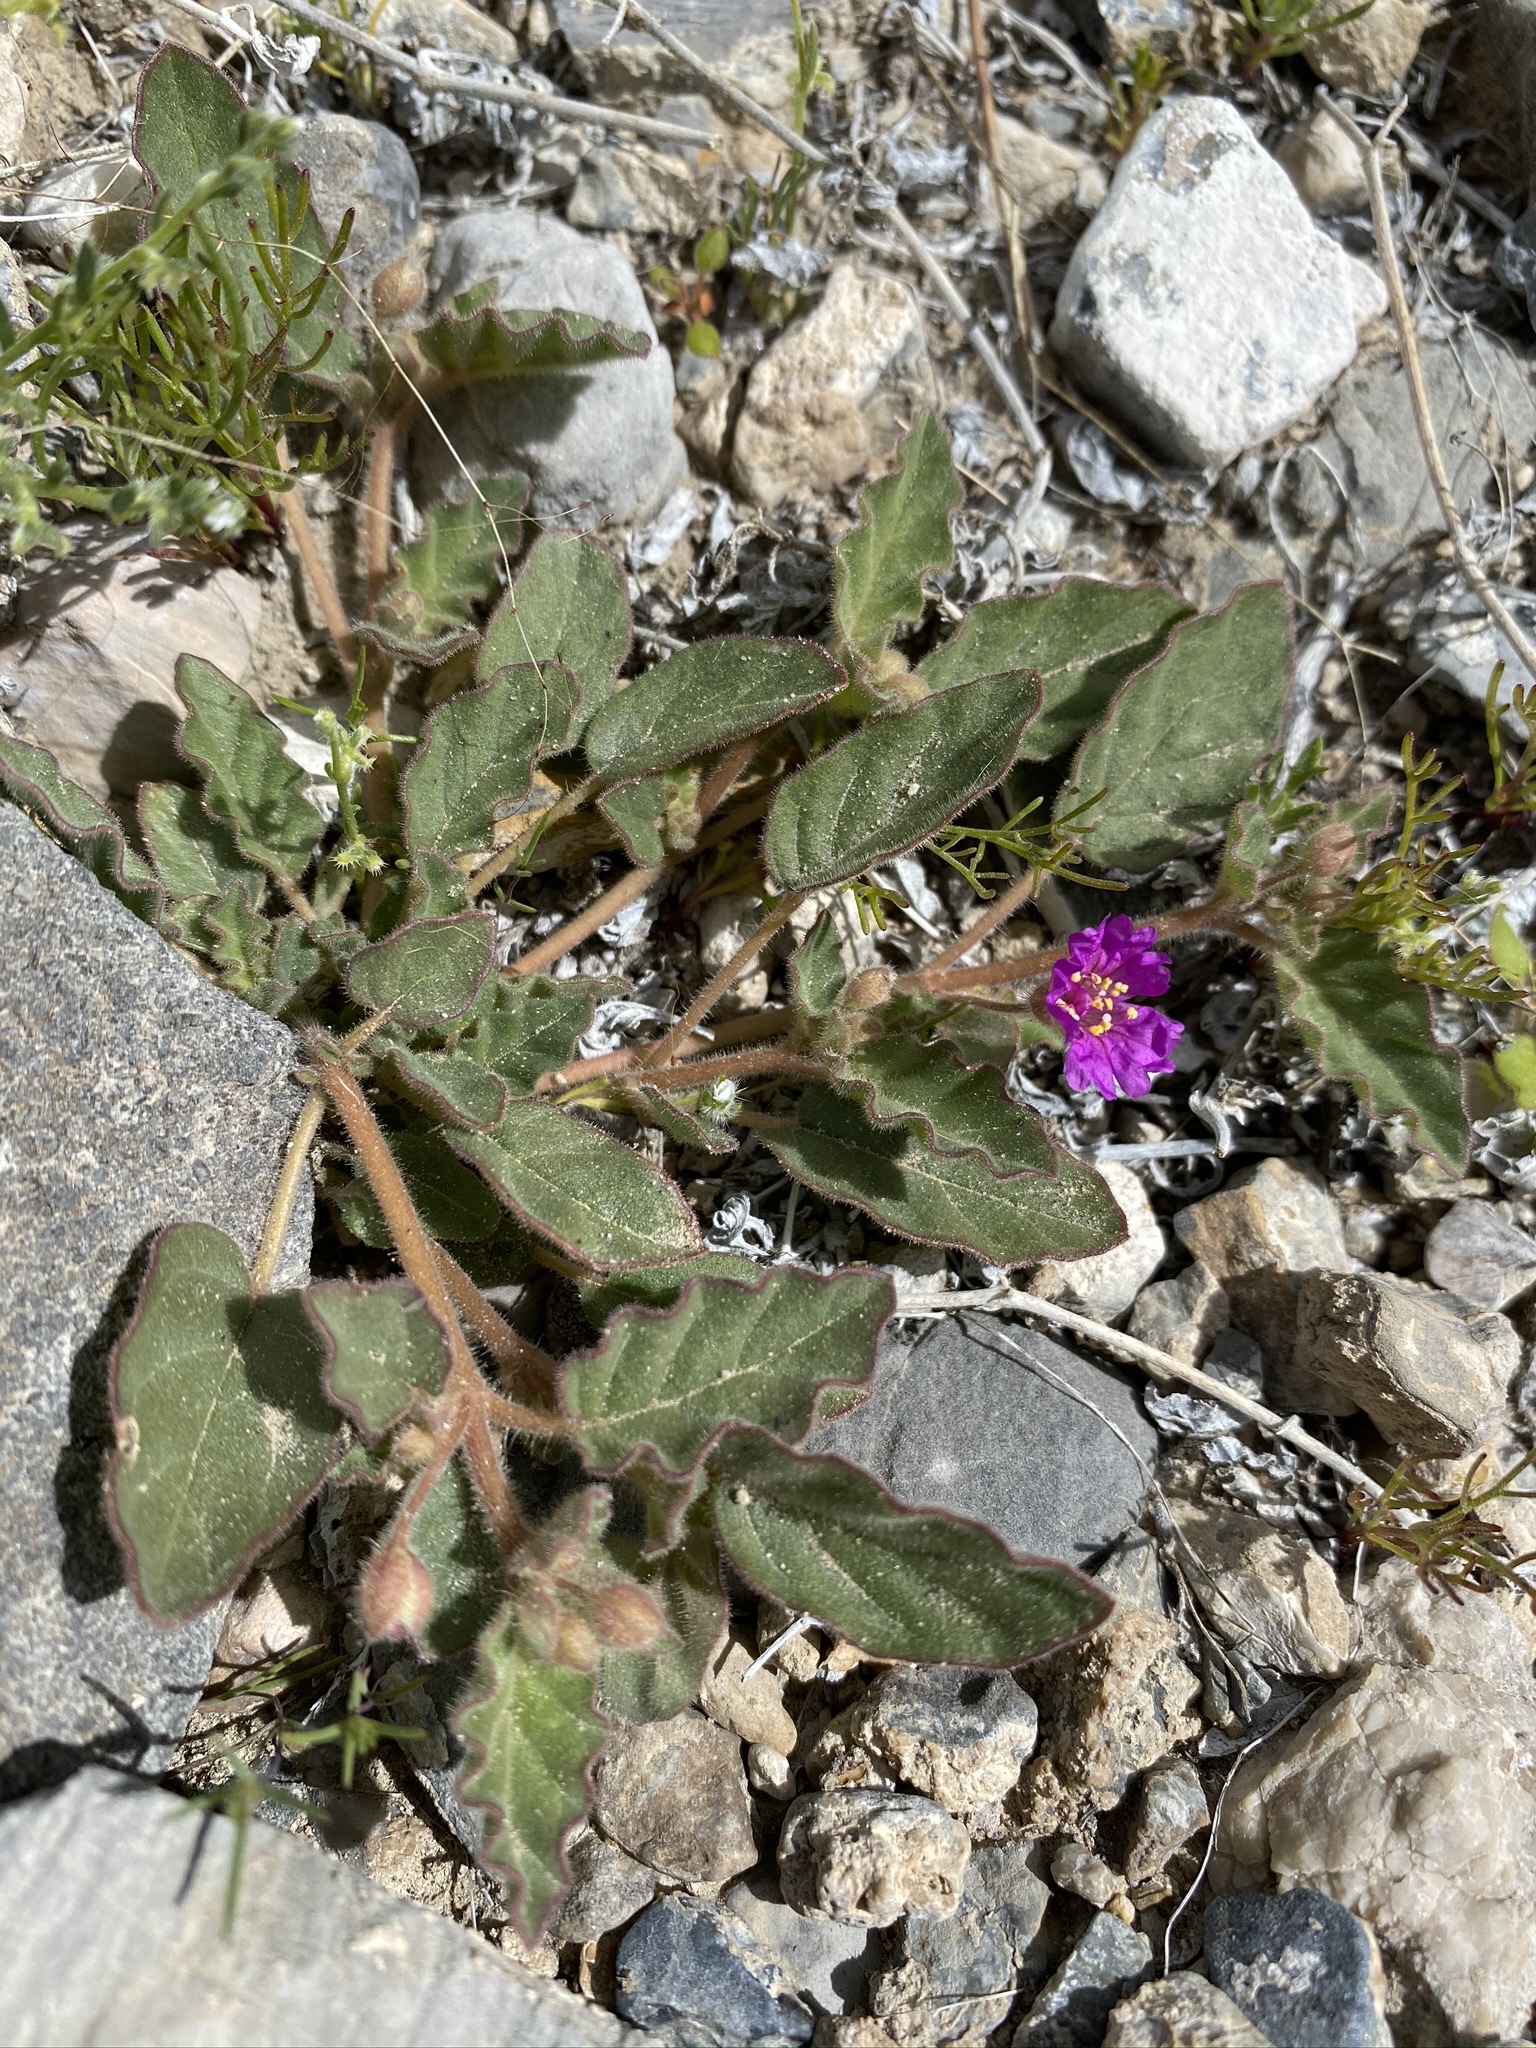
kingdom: Plantae
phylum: Tracheophyta
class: Magnoliopsida
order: Caryophyllales
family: Nyctaginaceae
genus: Allionia
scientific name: Allionia incarnata
